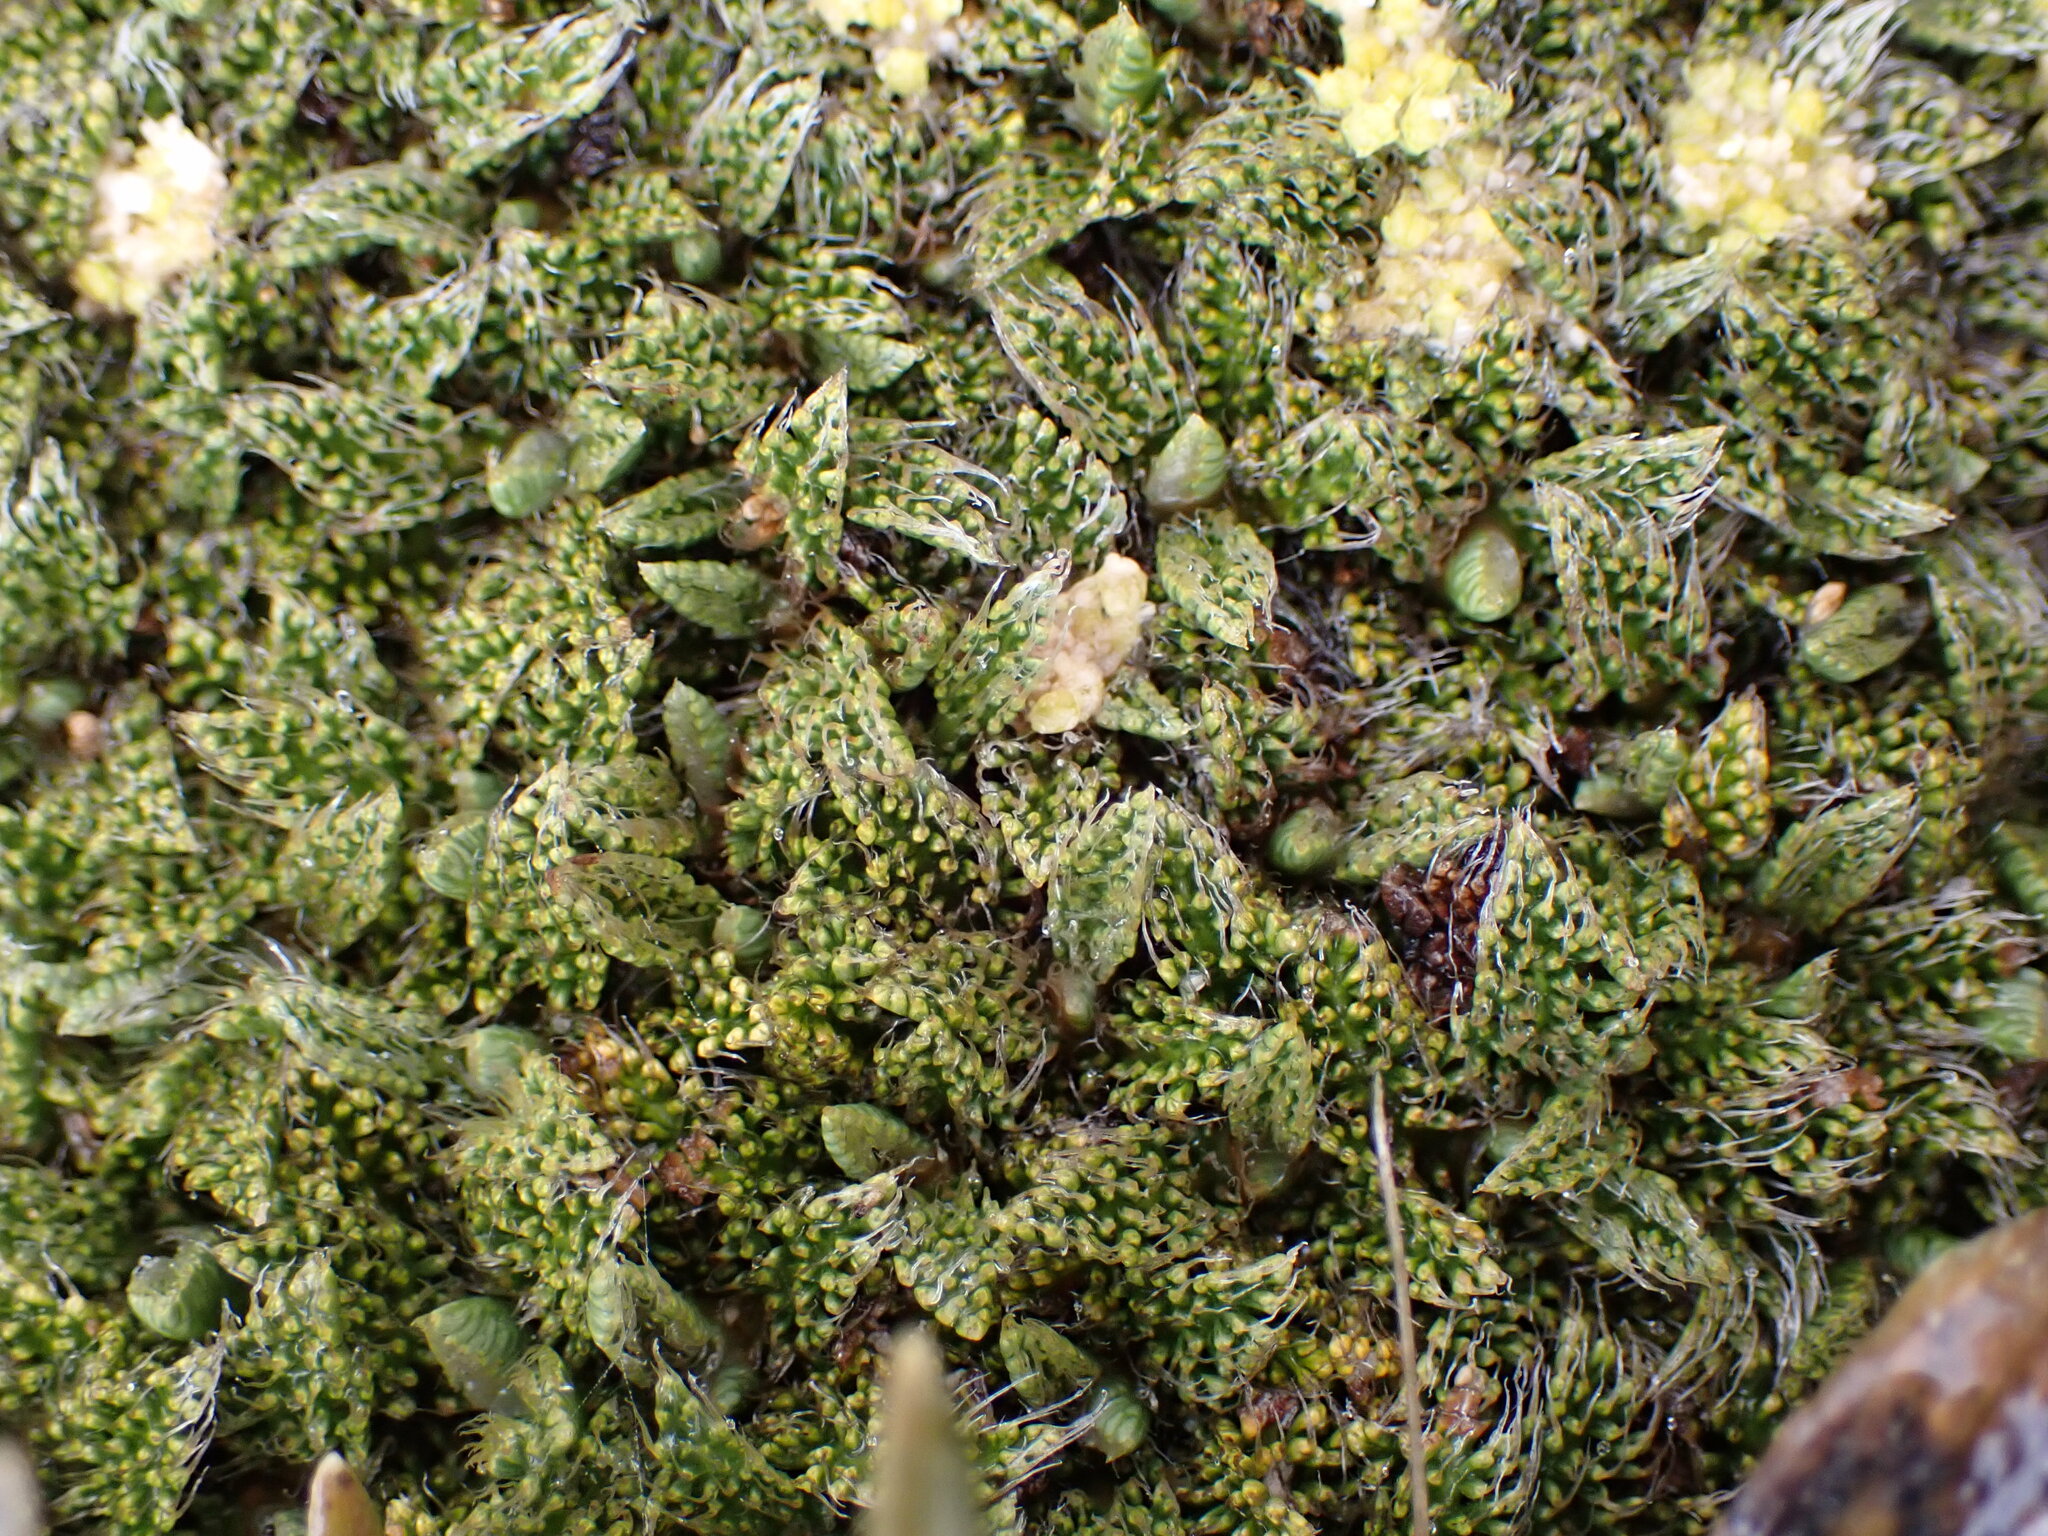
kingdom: Plantae
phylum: Tracheophyta
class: Magnoliopsida
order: Apiales
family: Apiaceae
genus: Anisotome
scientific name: Anisotome imbricata
